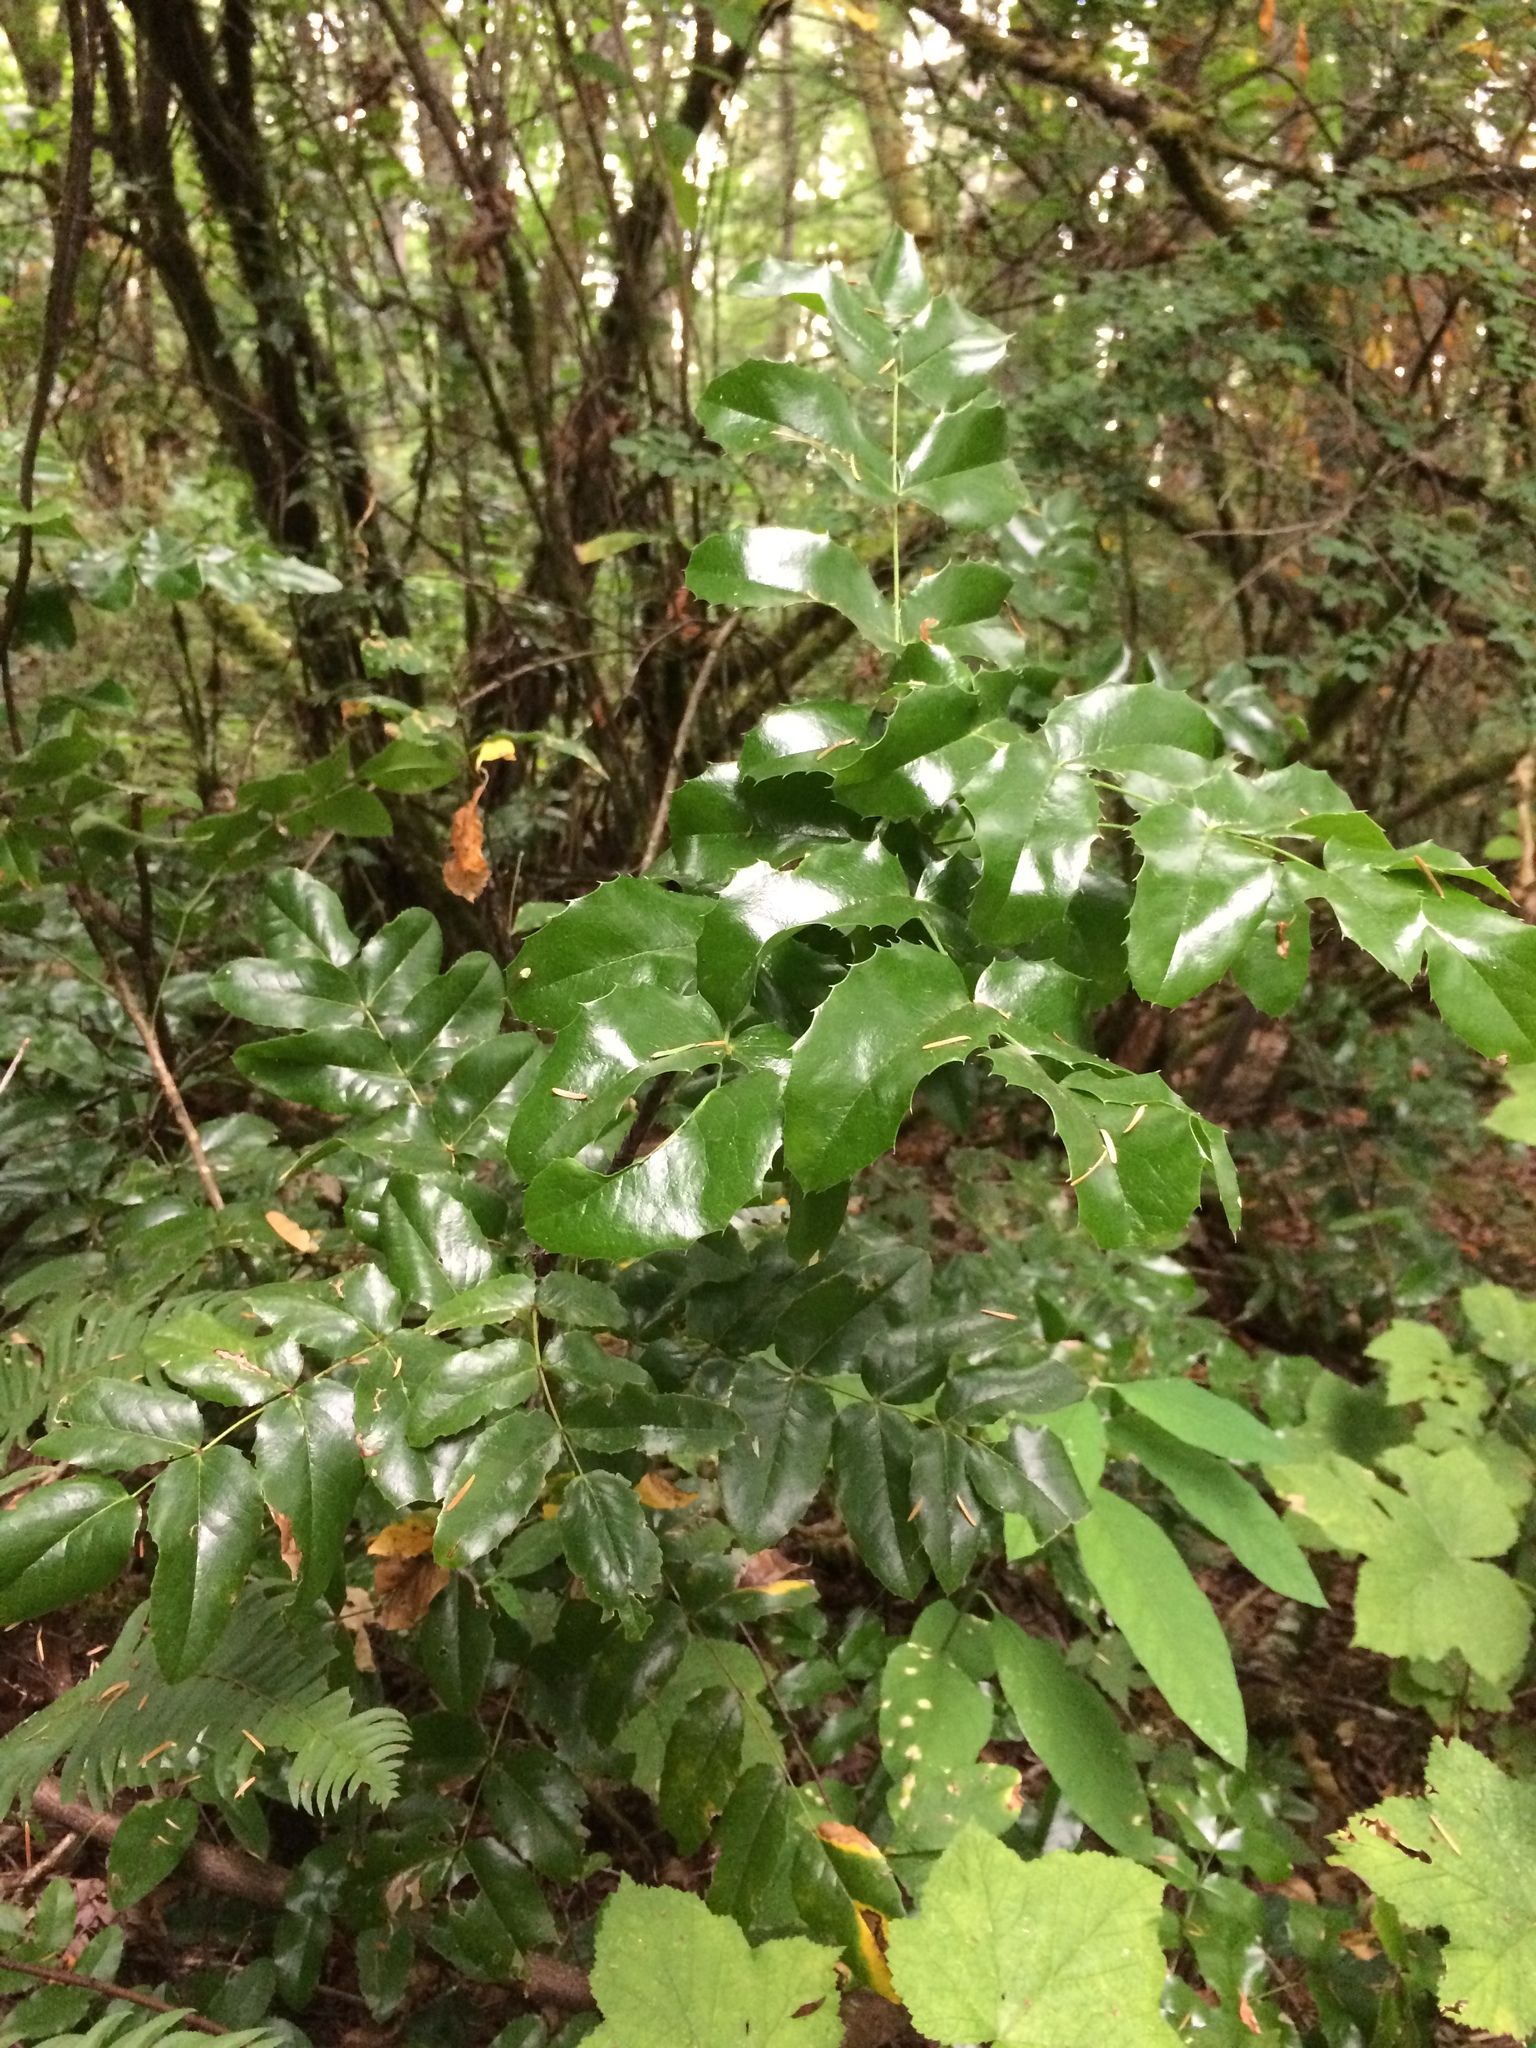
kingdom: Plantae
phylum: Tracheophyta
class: Magnoliopsida
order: Ranunculales
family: Berberidaceae
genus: Mahonia
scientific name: Mahonia aquifolium
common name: Oregon-grape
